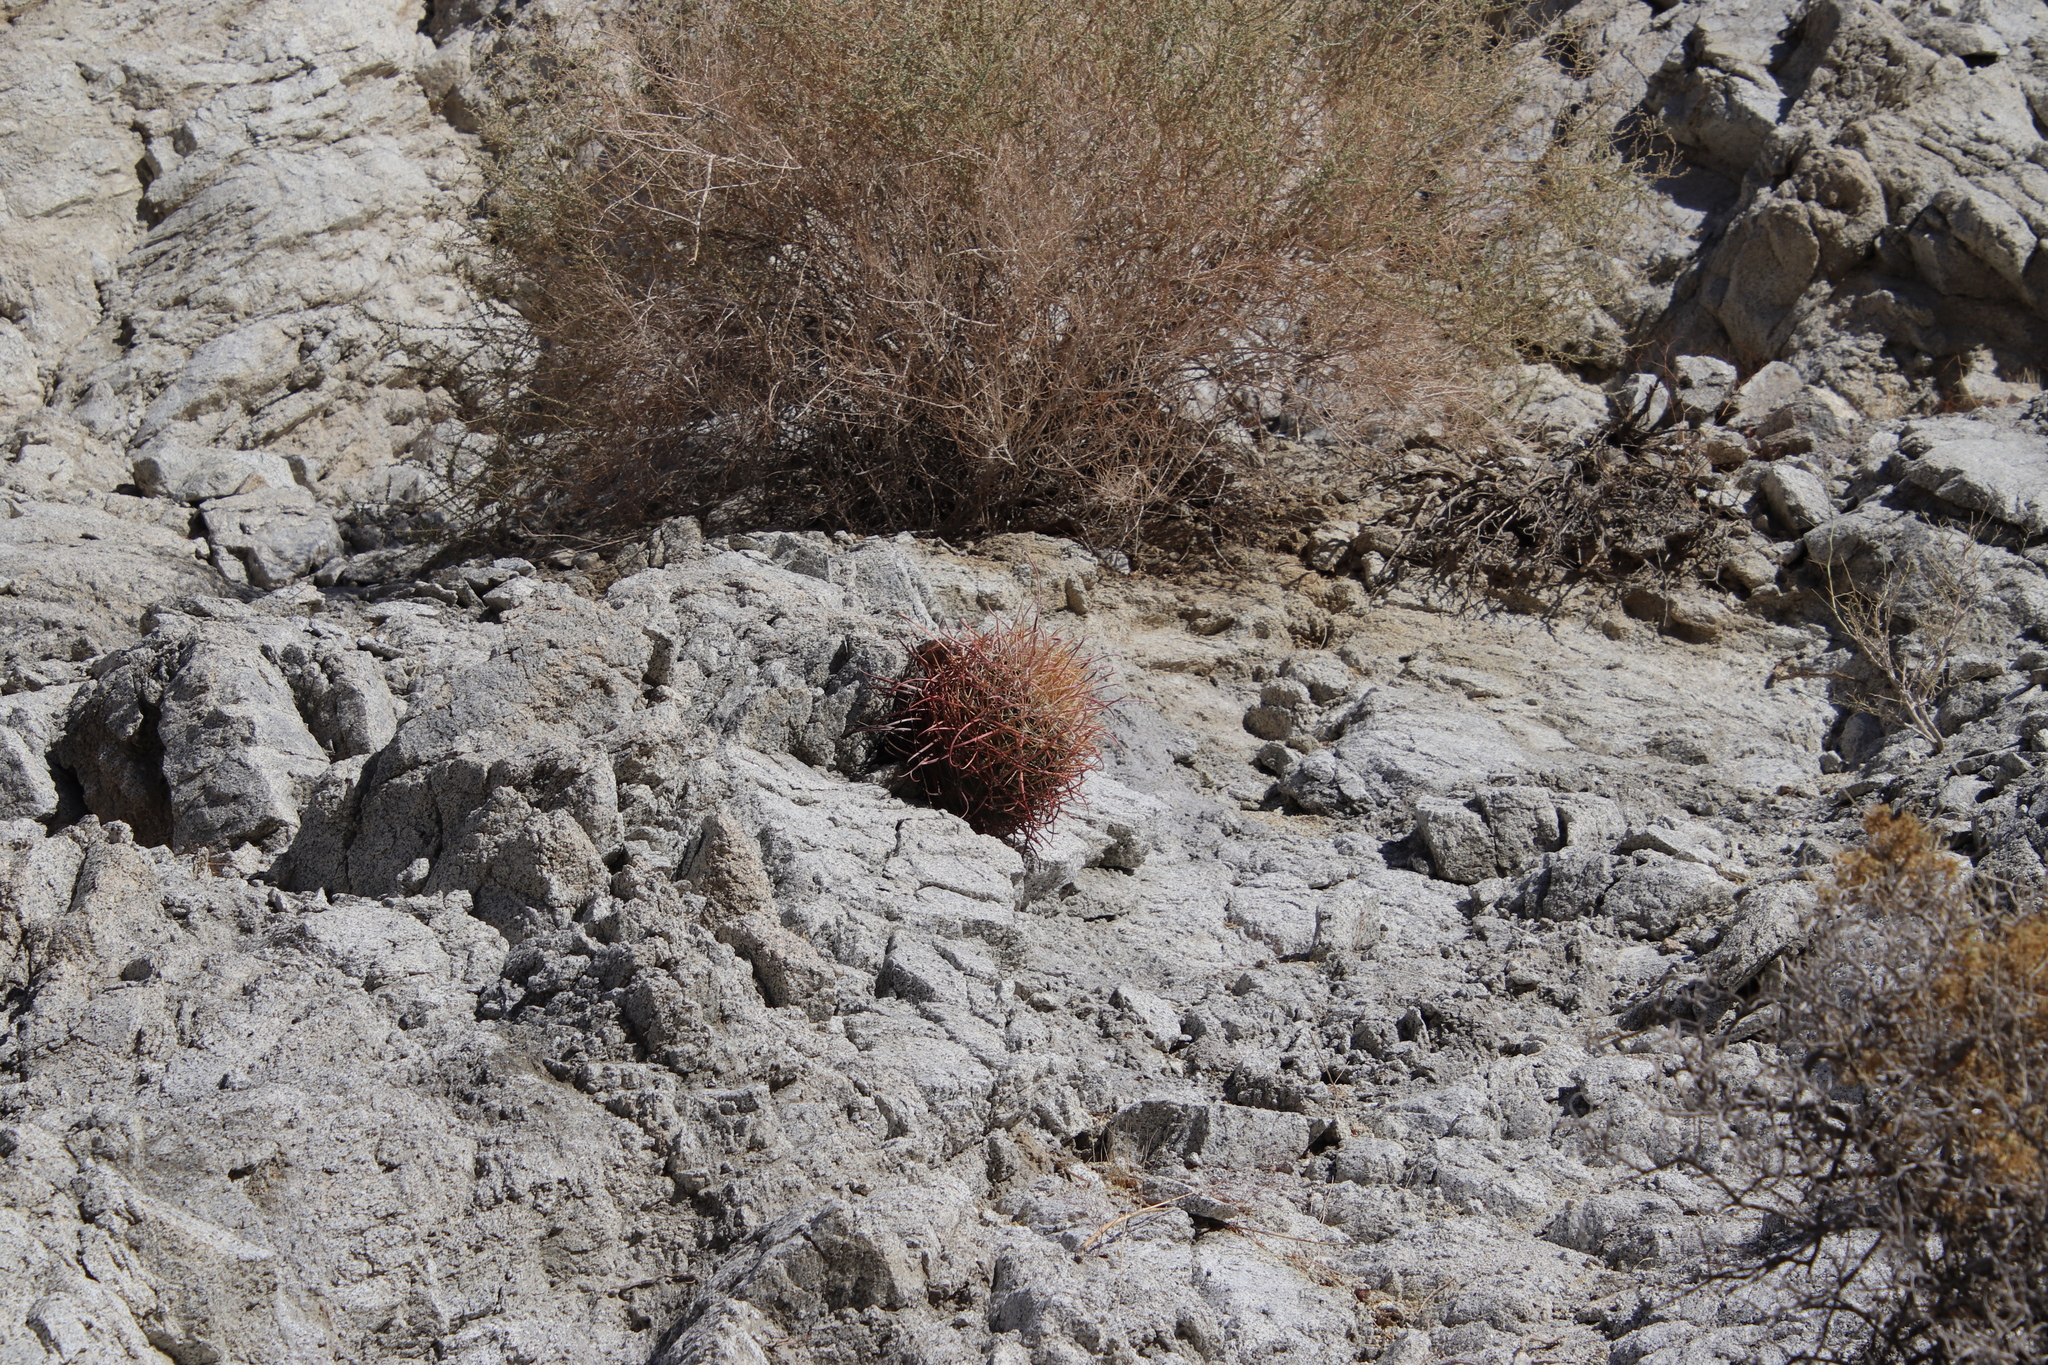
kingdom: Plantae
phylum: Tracheophyta
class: Magnoliopsida
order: Caryophyllales
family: Cactaceae
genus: Ferocactus
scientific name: Ferocactus cylindraceus
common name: California barrel cactus
